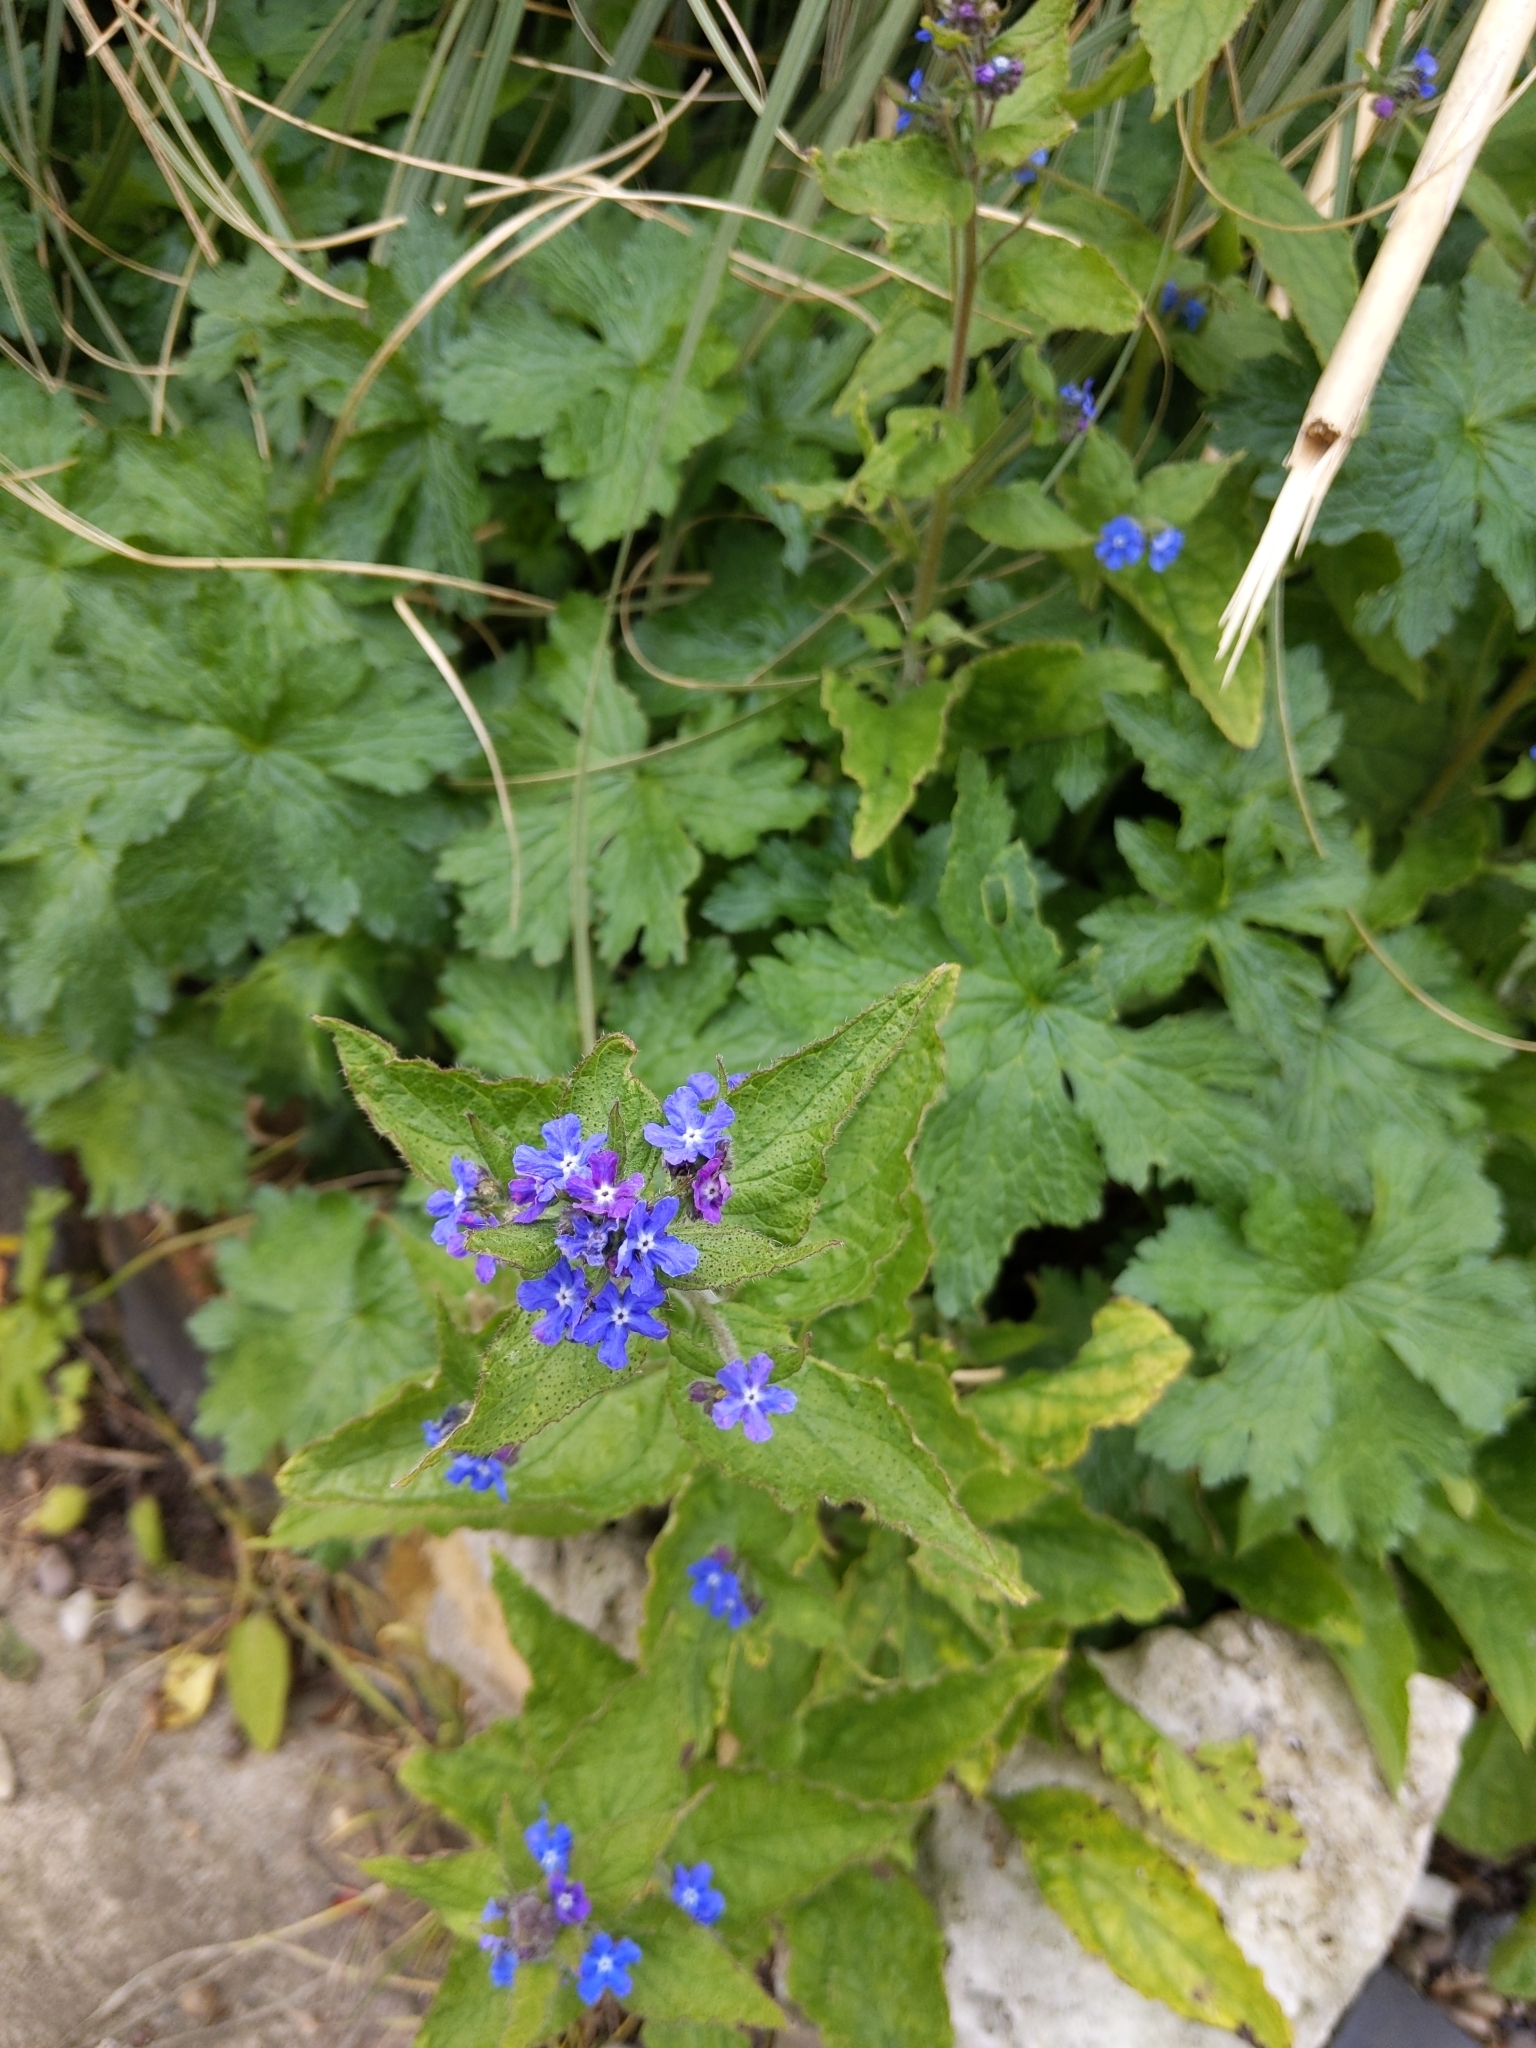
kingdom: Plantae
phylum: Tracheophyta
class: Magnoliopsida
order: Boraginales
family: Boraginaceae
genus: Pentaglottis
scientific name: Pentaglottis sempervirens
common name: Green alkanet
